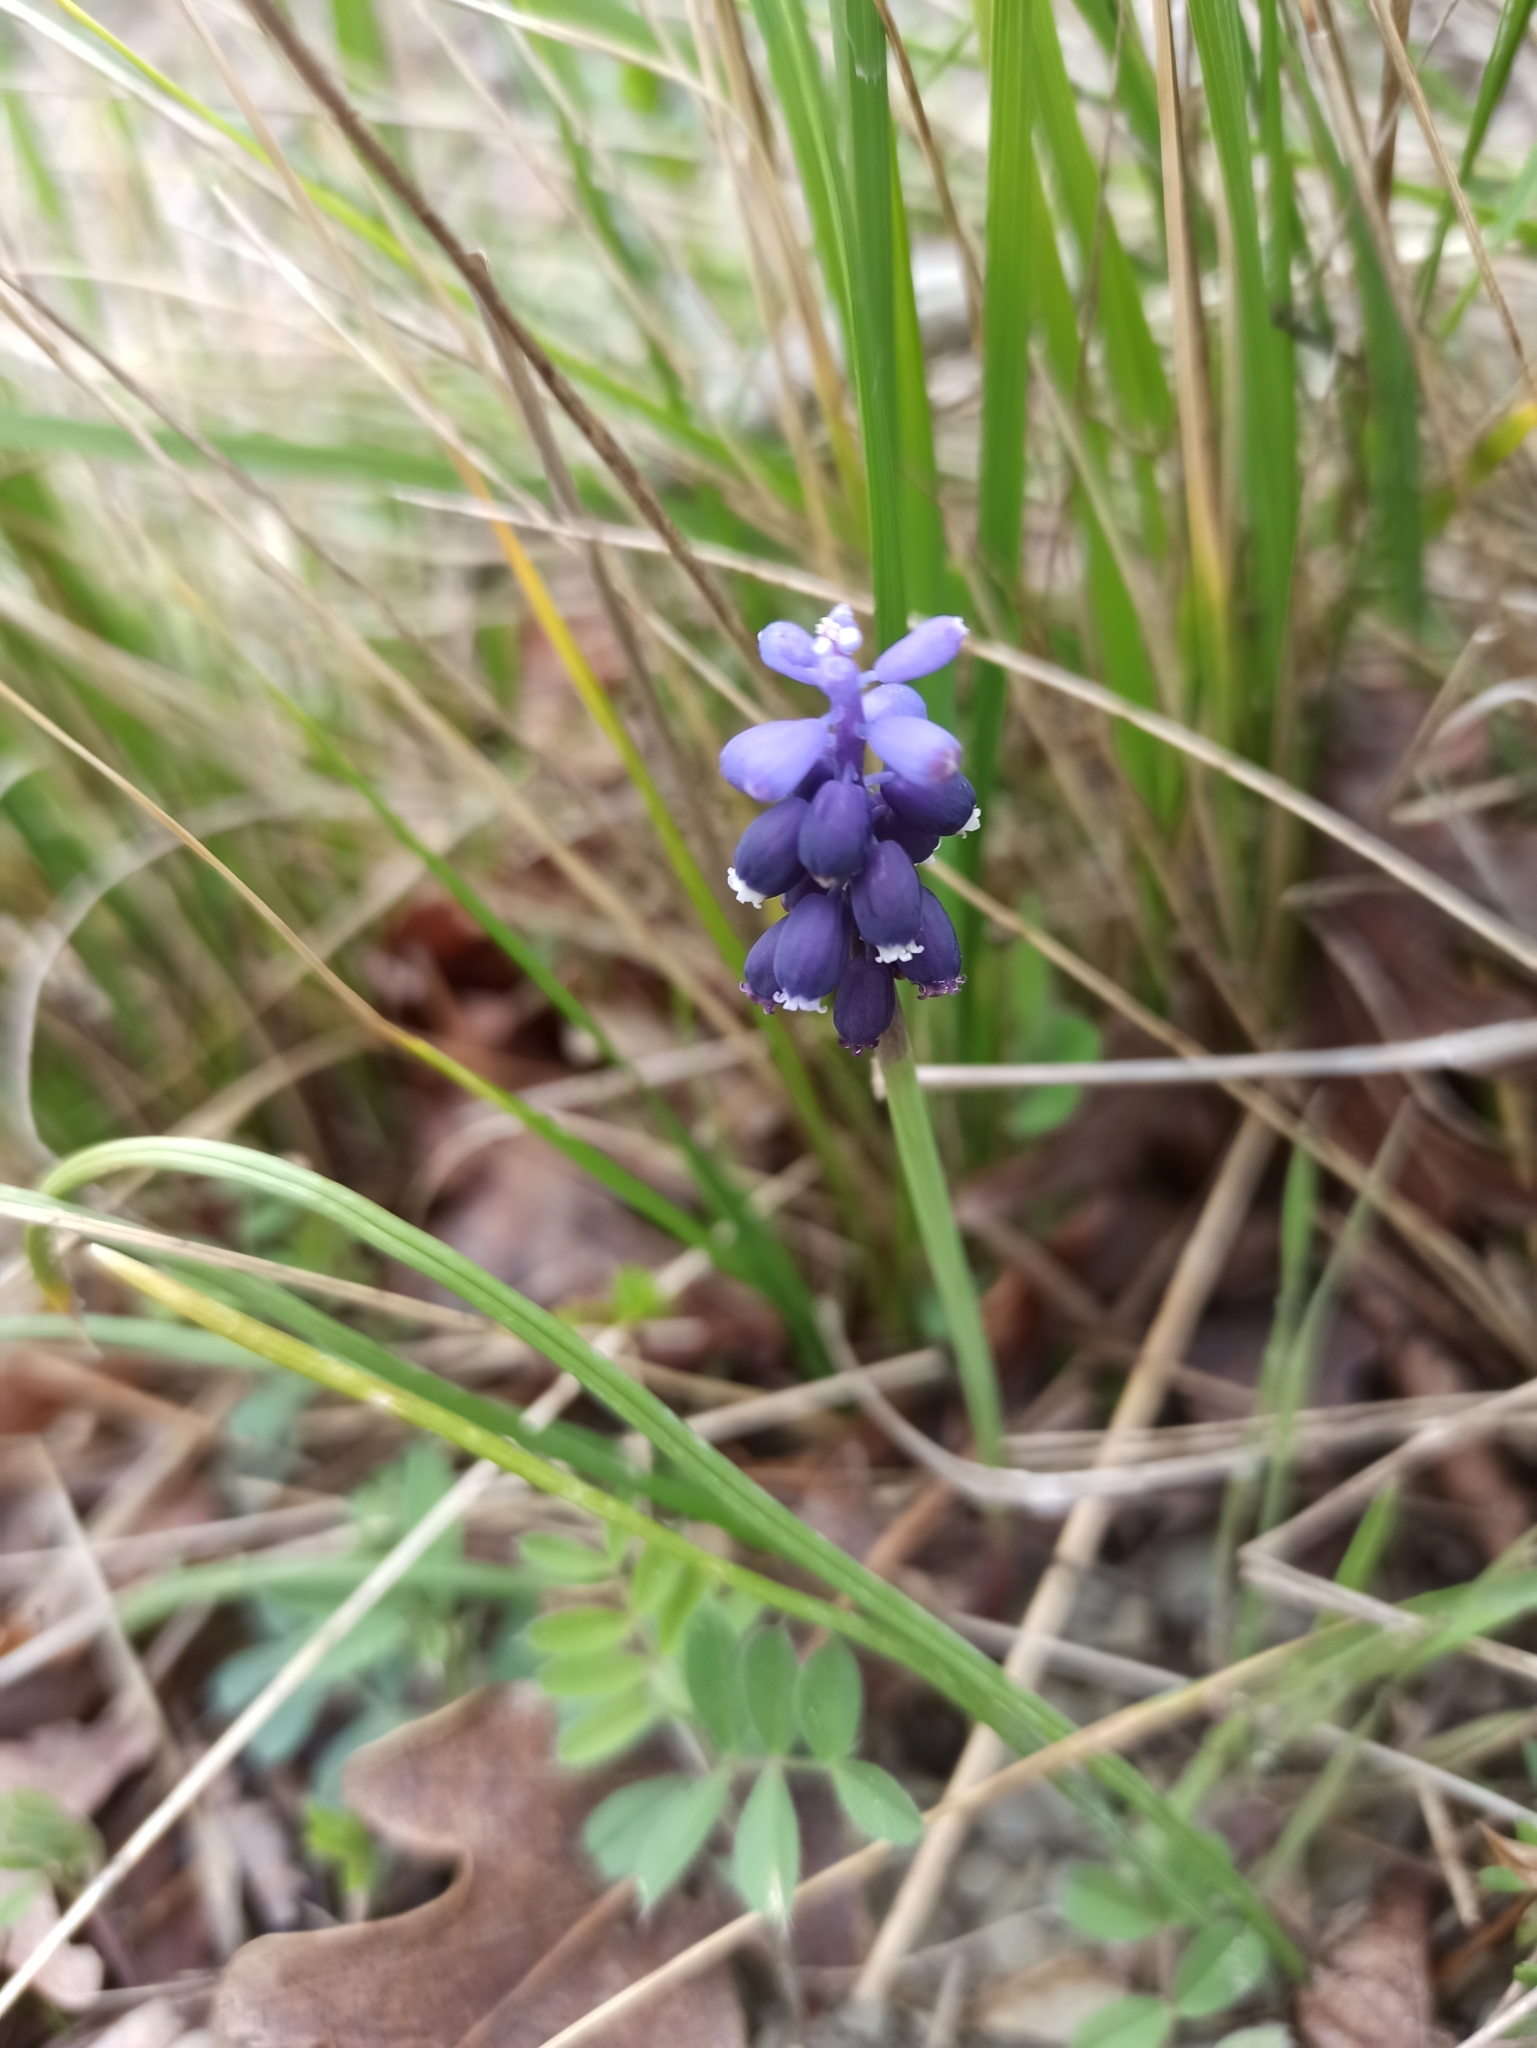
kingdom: Plantae
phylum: Tracheophyta
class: Liliopsida
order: Asparagales
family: Asparagaceae
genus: Muscari
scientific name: Muscari neglectum
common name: Grape-hyacinth
